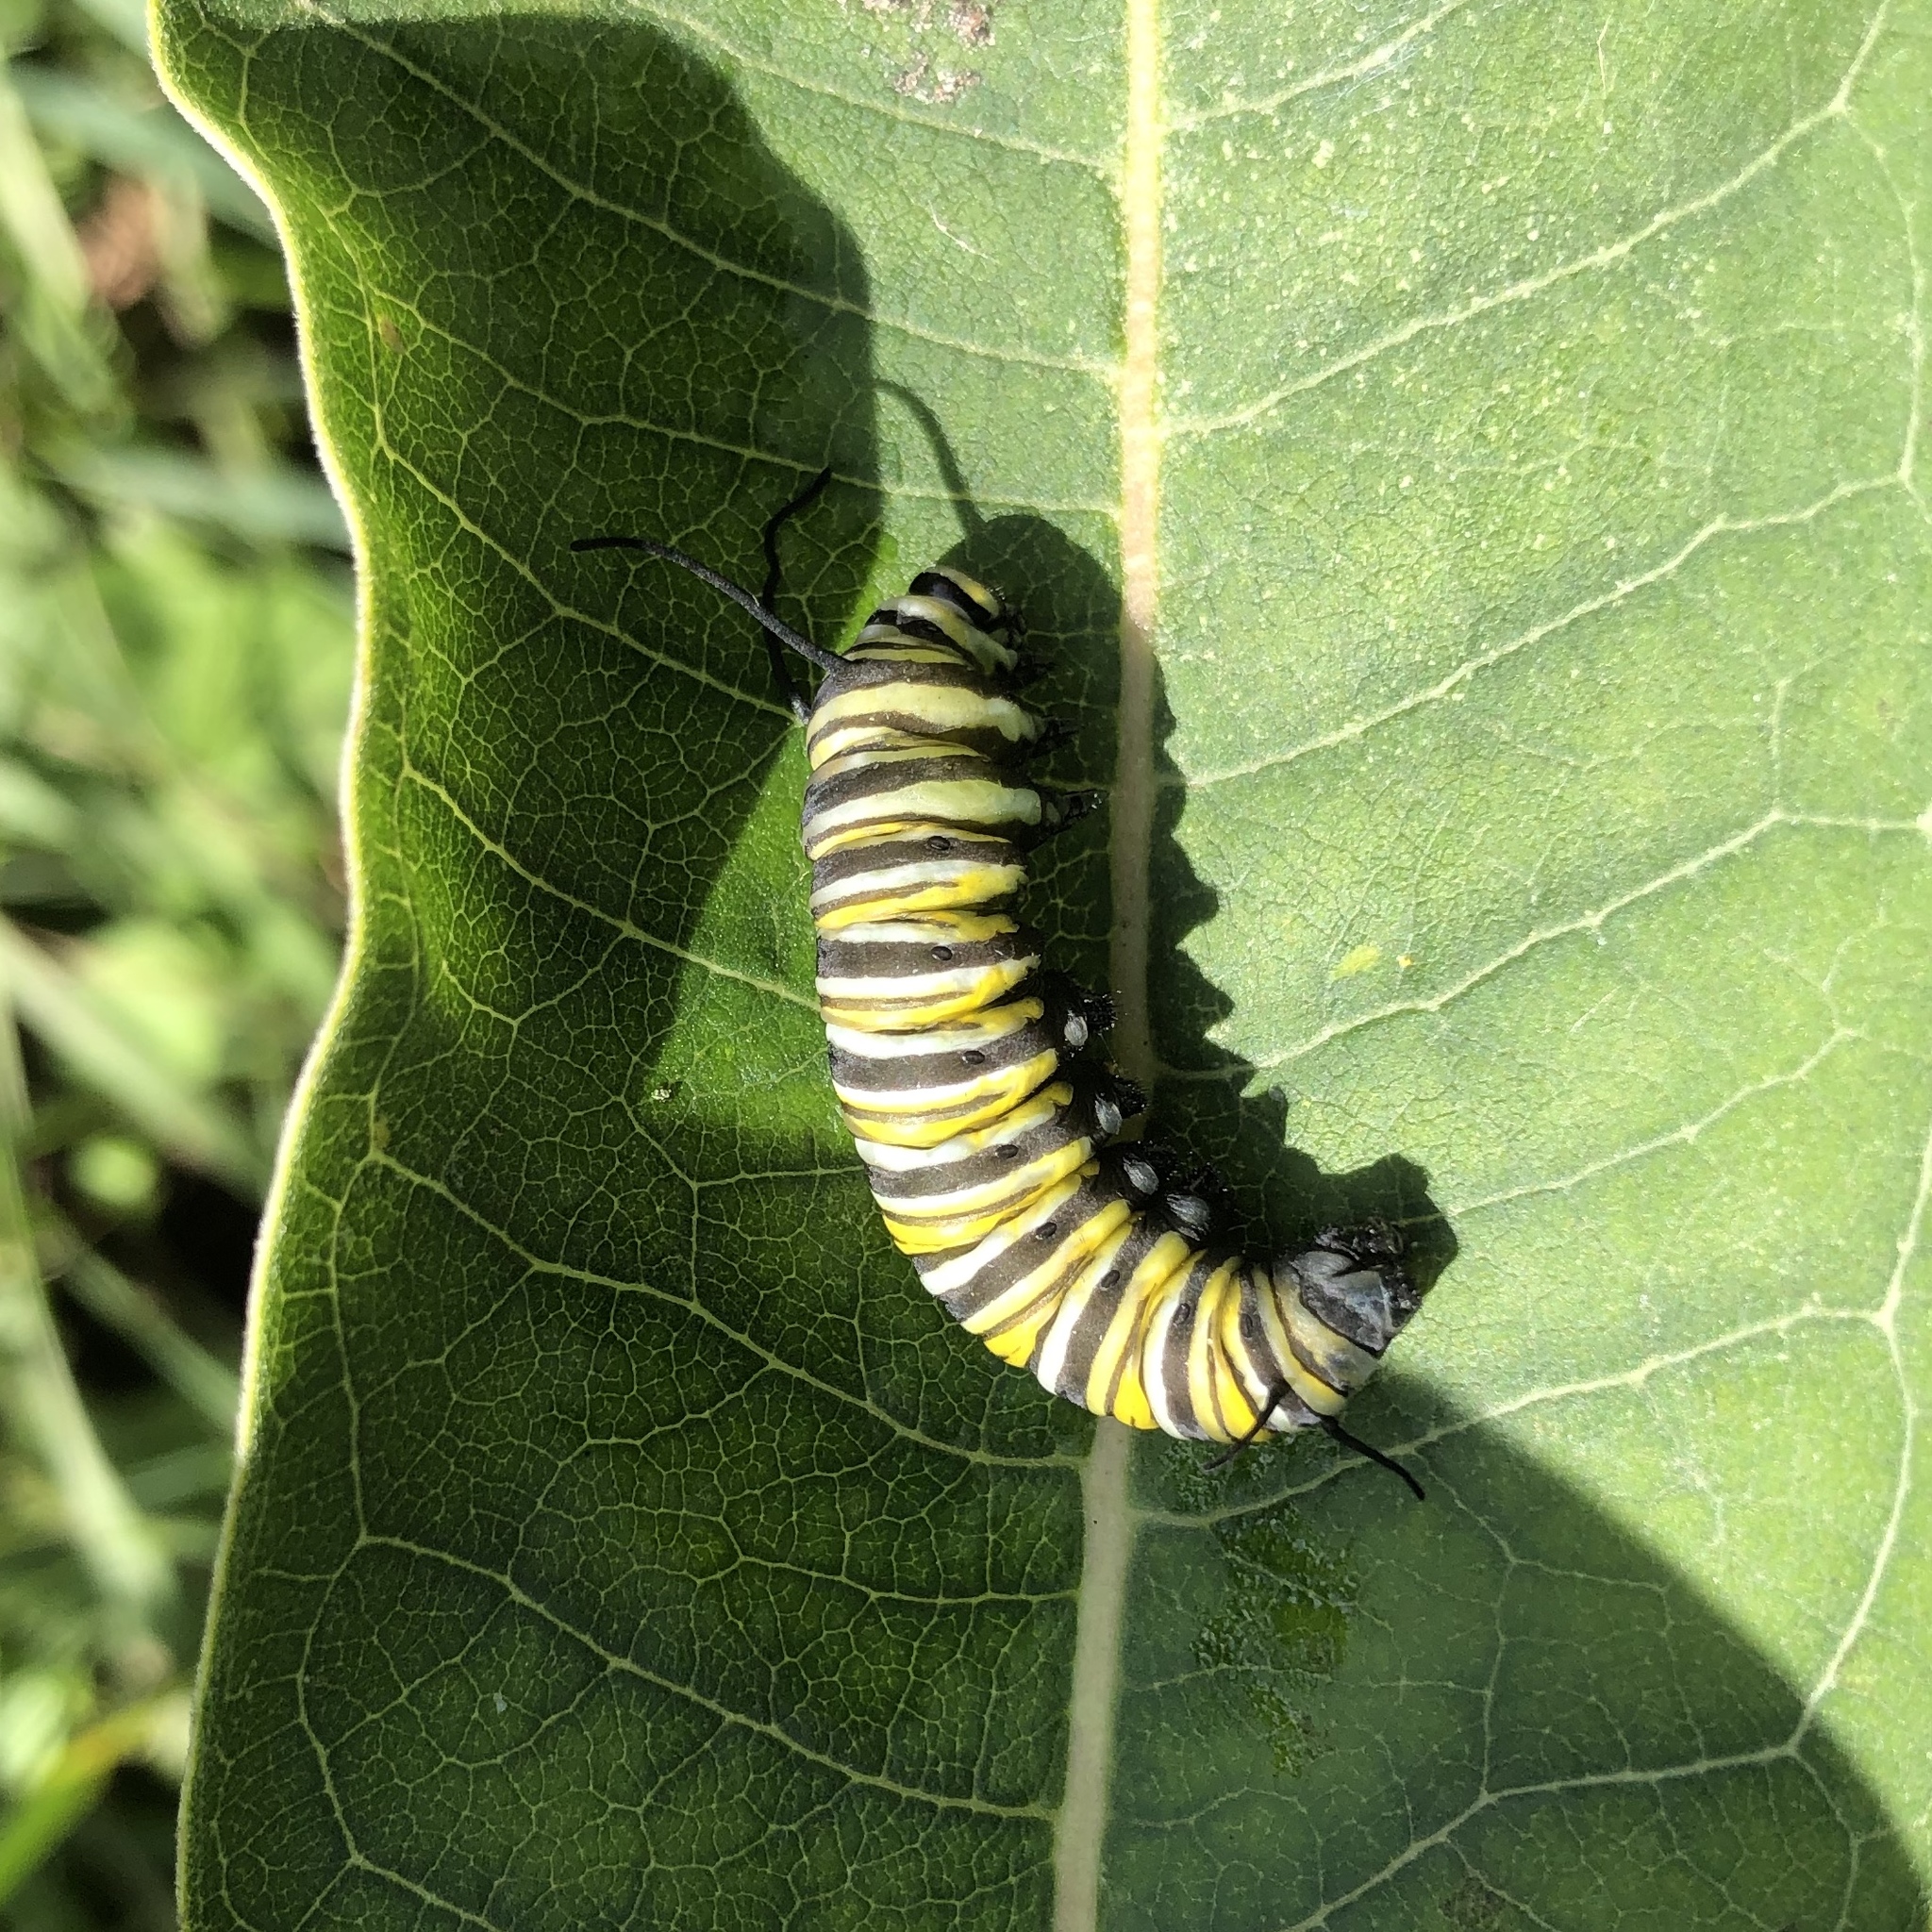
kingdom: Animalia
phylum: Arthropoda
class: Insecta
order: Lepidoptera
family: Nymphalidae
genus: Danaus
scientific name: Danaus plexippus
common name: Monarch
